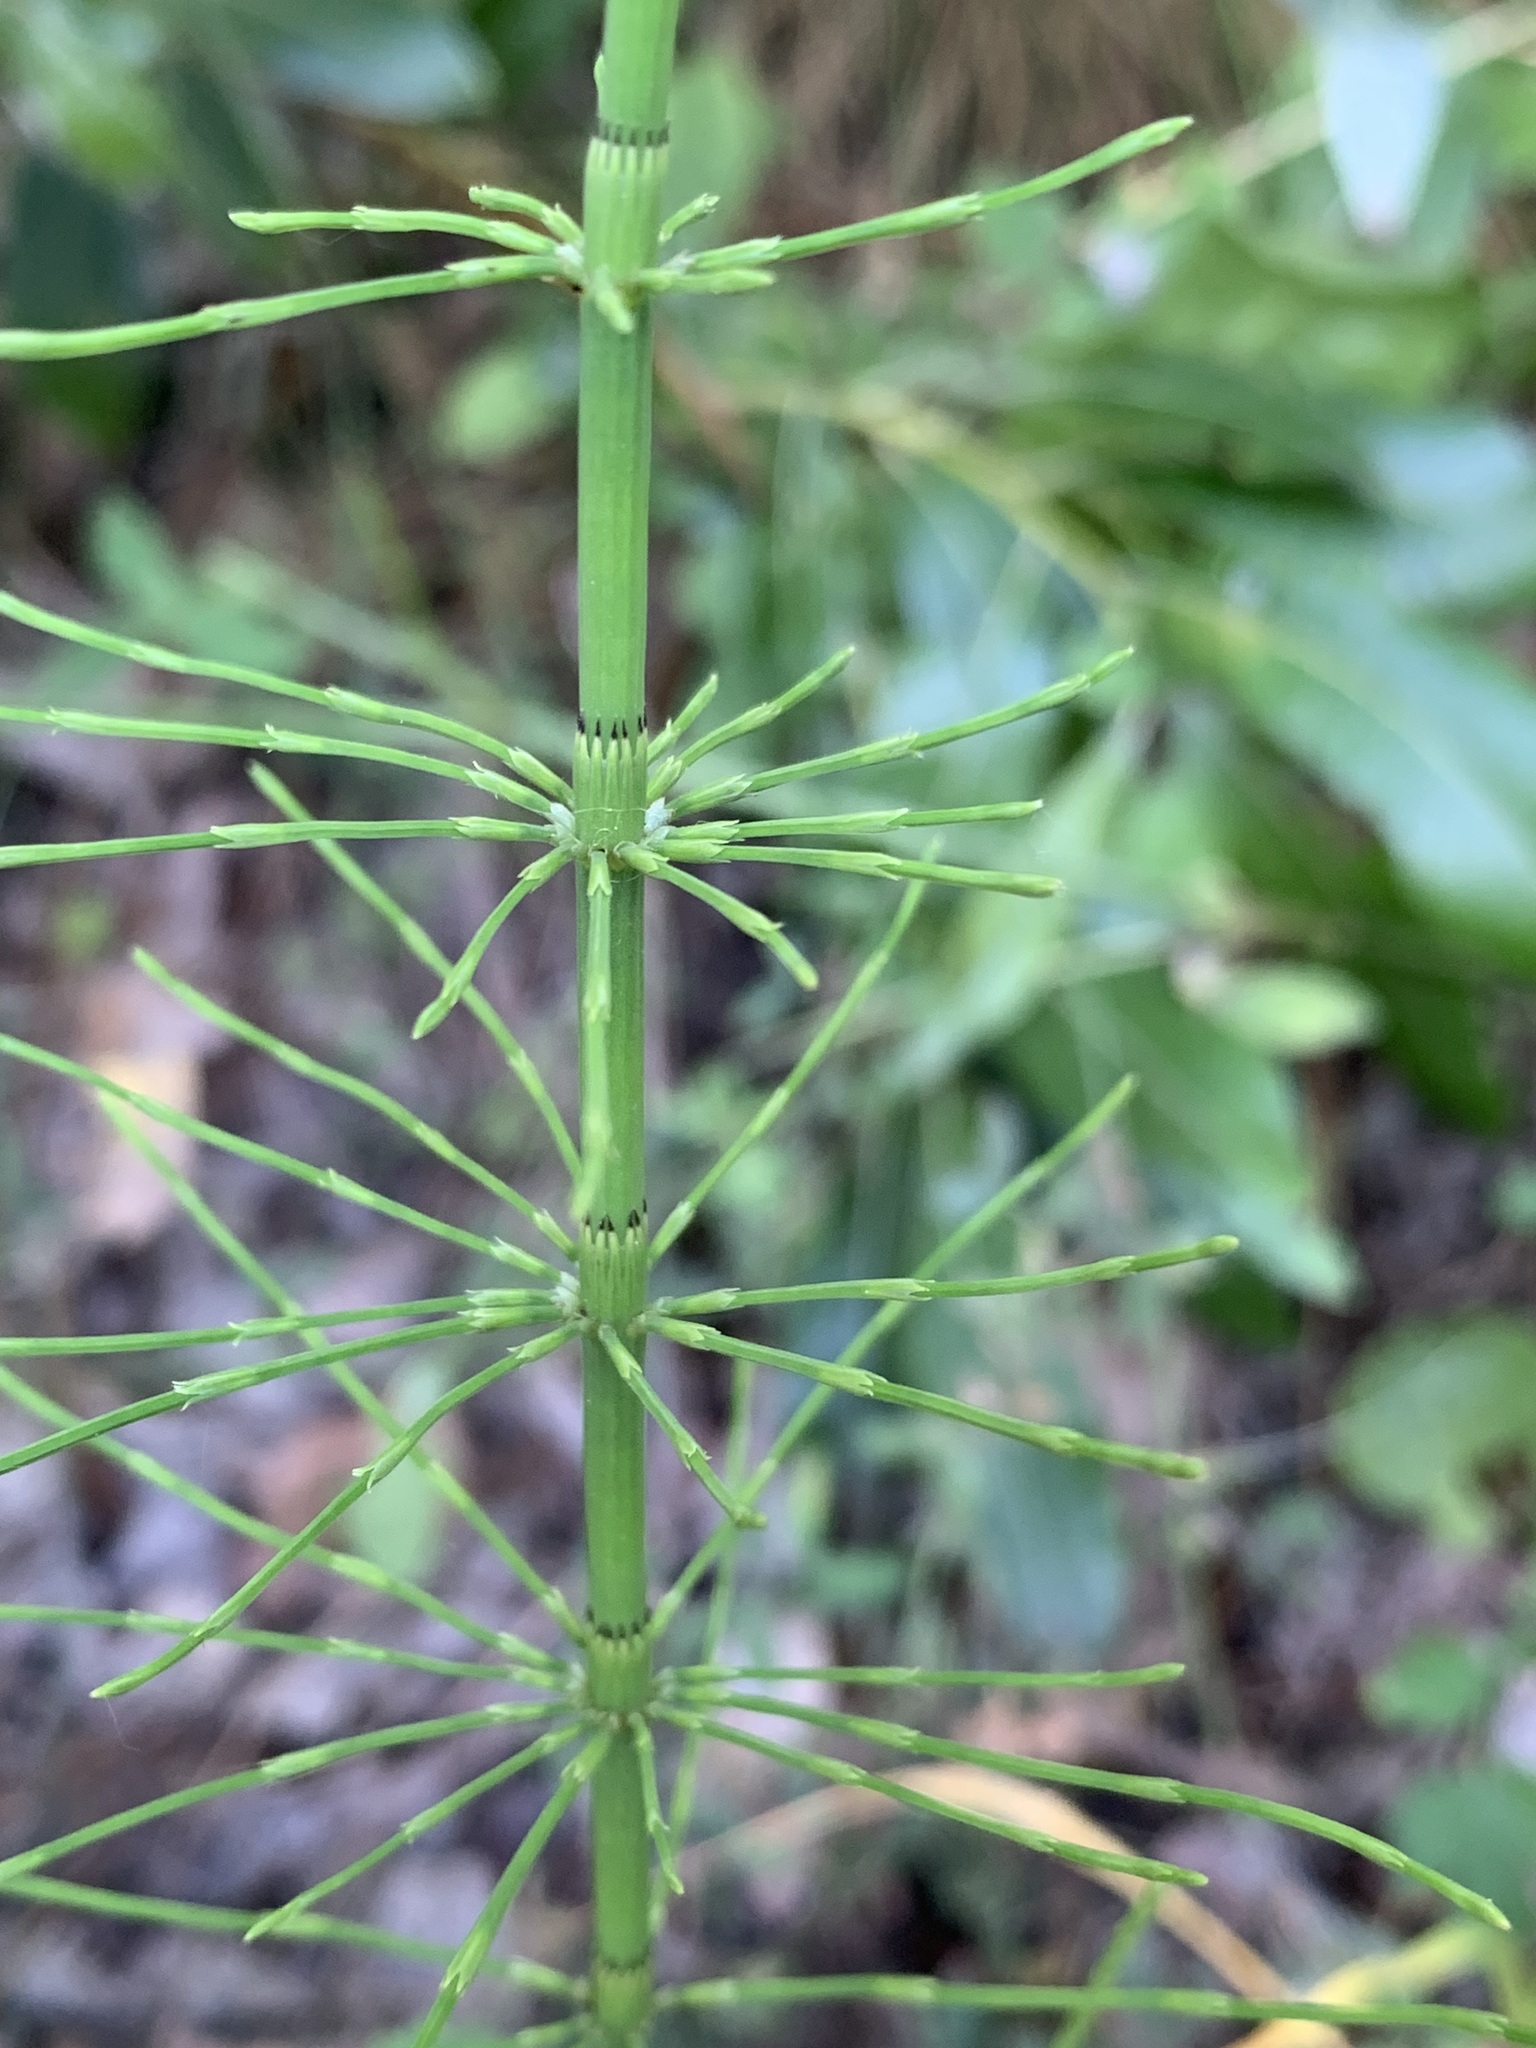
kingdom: Plantae
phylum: Tracheophyta
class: Polypodiopsida
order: Equisetales
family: Equisetaceae
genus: Equisetum
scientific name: Equisetum fluviatile
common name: Water horsetail
